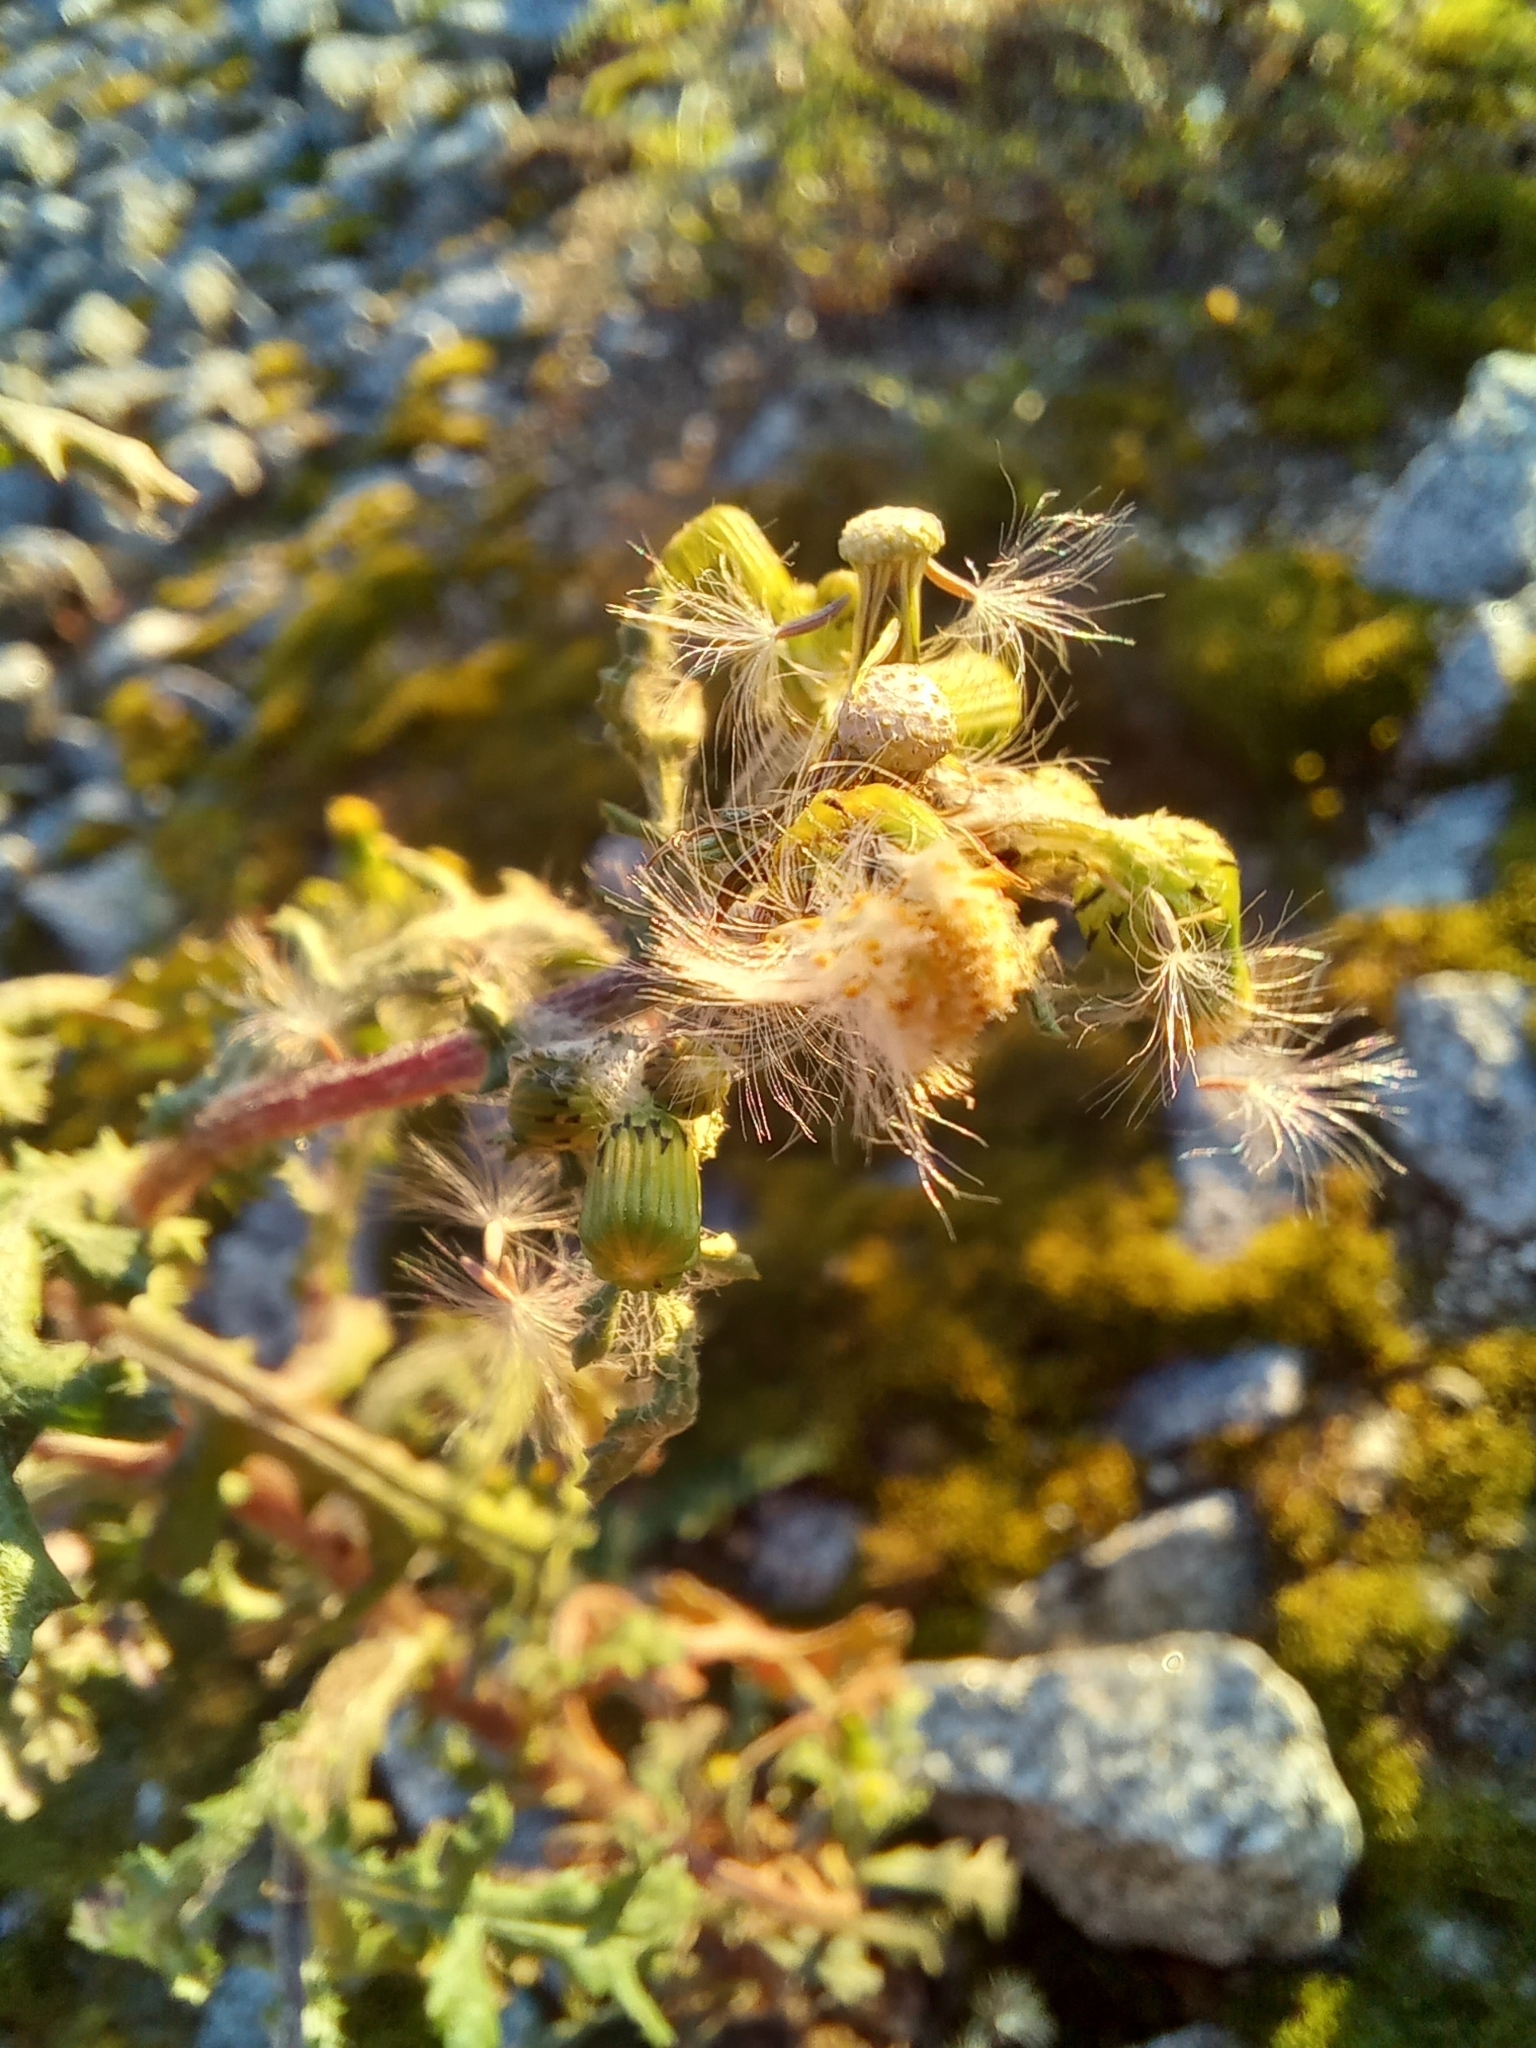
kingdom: Plantae
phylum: Tracheophyta
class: Magnoliopsida
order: Asterales
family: Asteraceae
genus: Senecio
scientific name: Senecio vulgaris
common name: Old-man-in-the-spring
